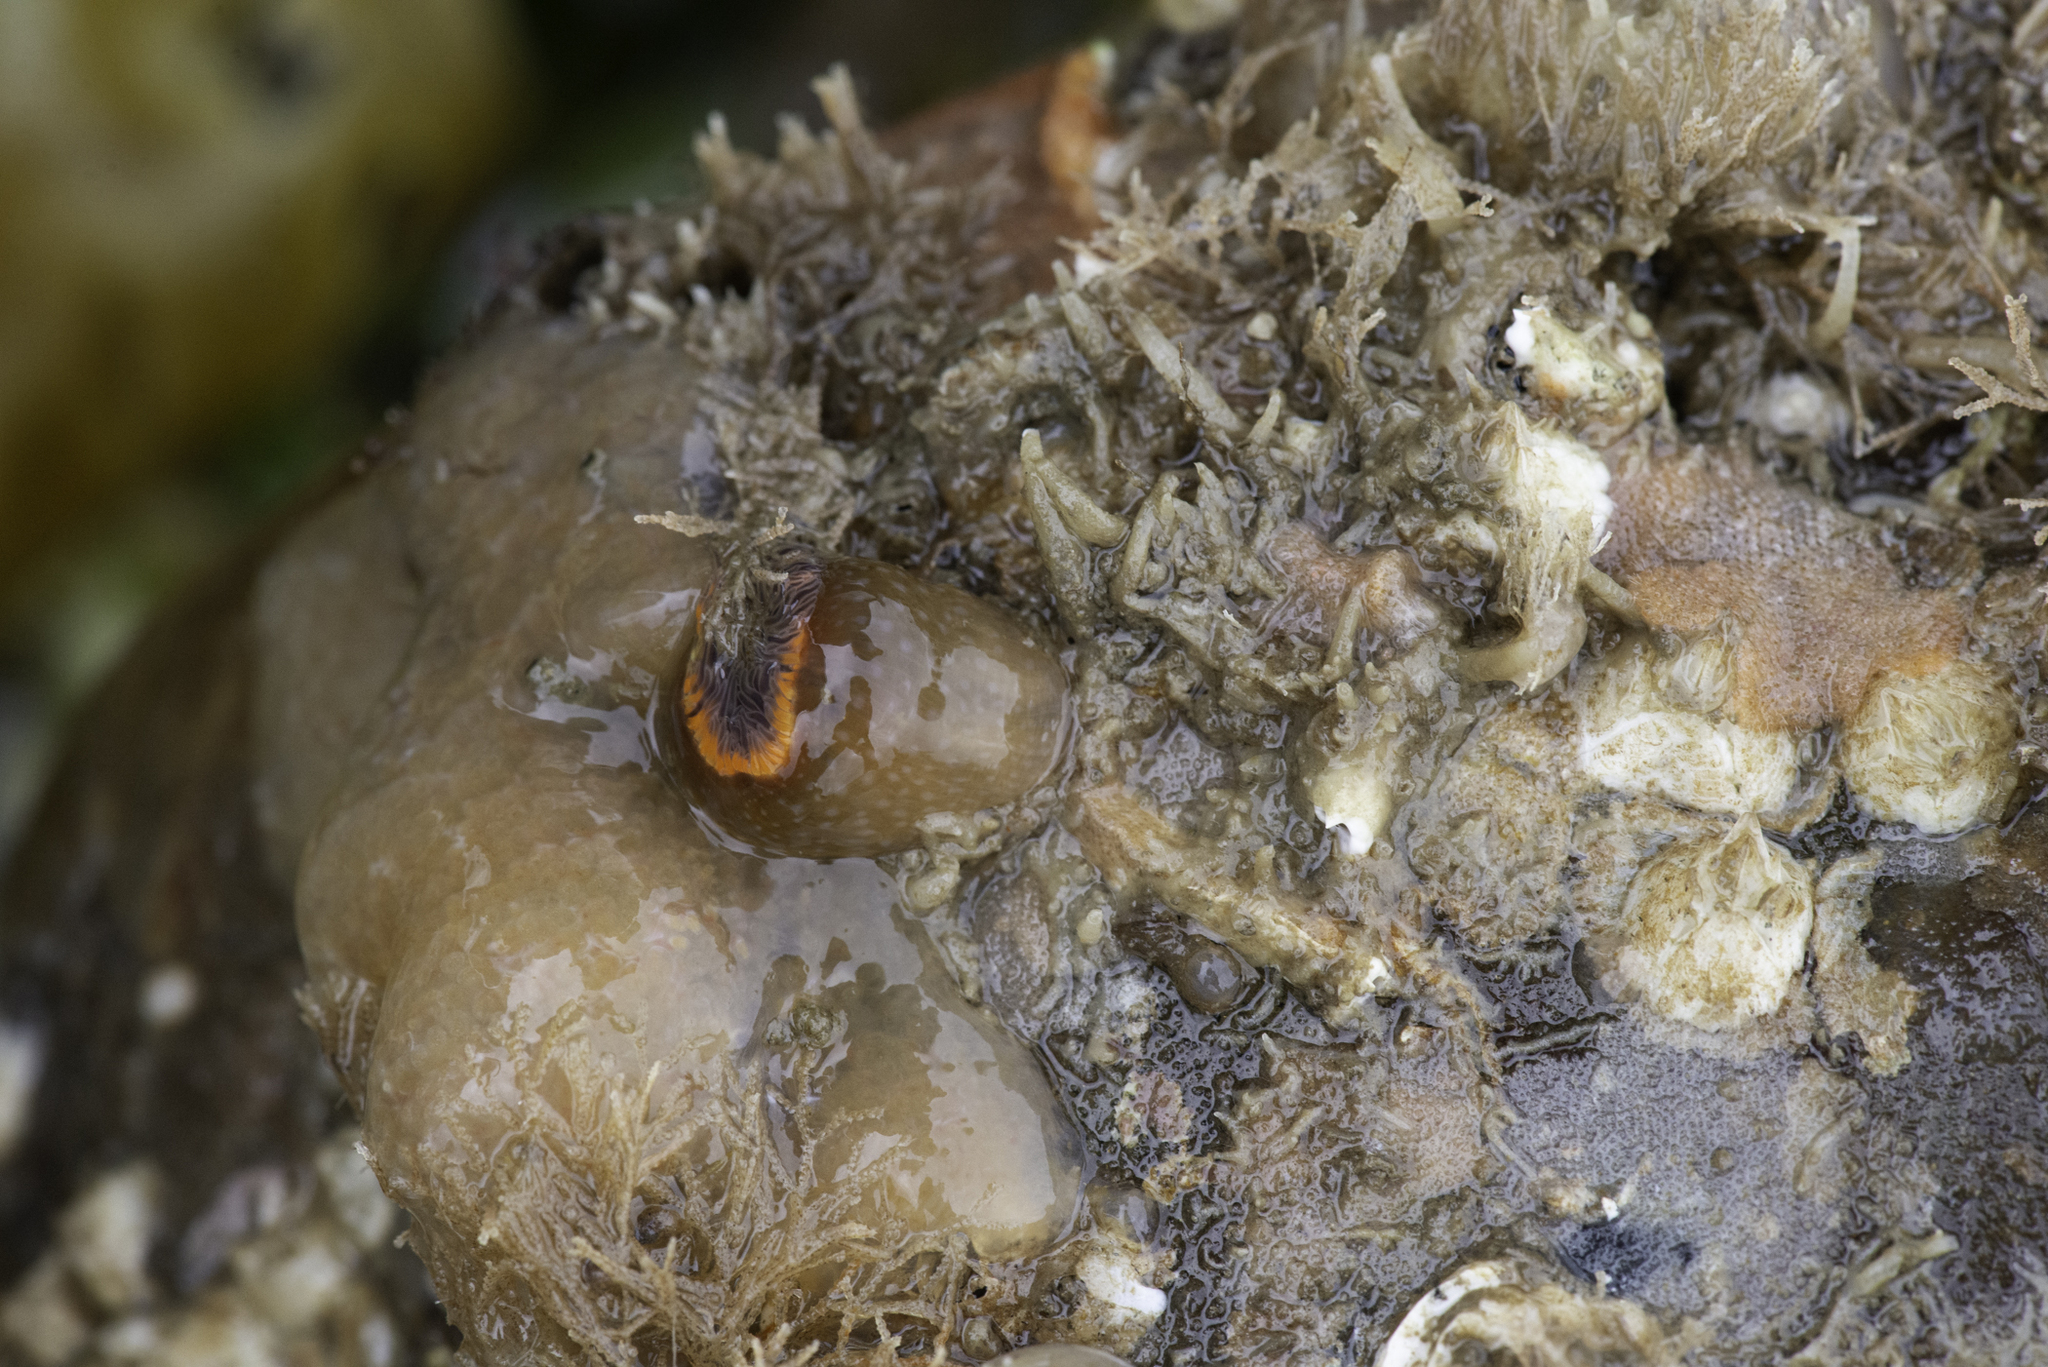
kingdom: Animalia
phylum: Cnidaria
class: Anthozoa
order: Actiniaria
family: Sagartiidae
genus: Cylista
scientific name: Cylista elegans
